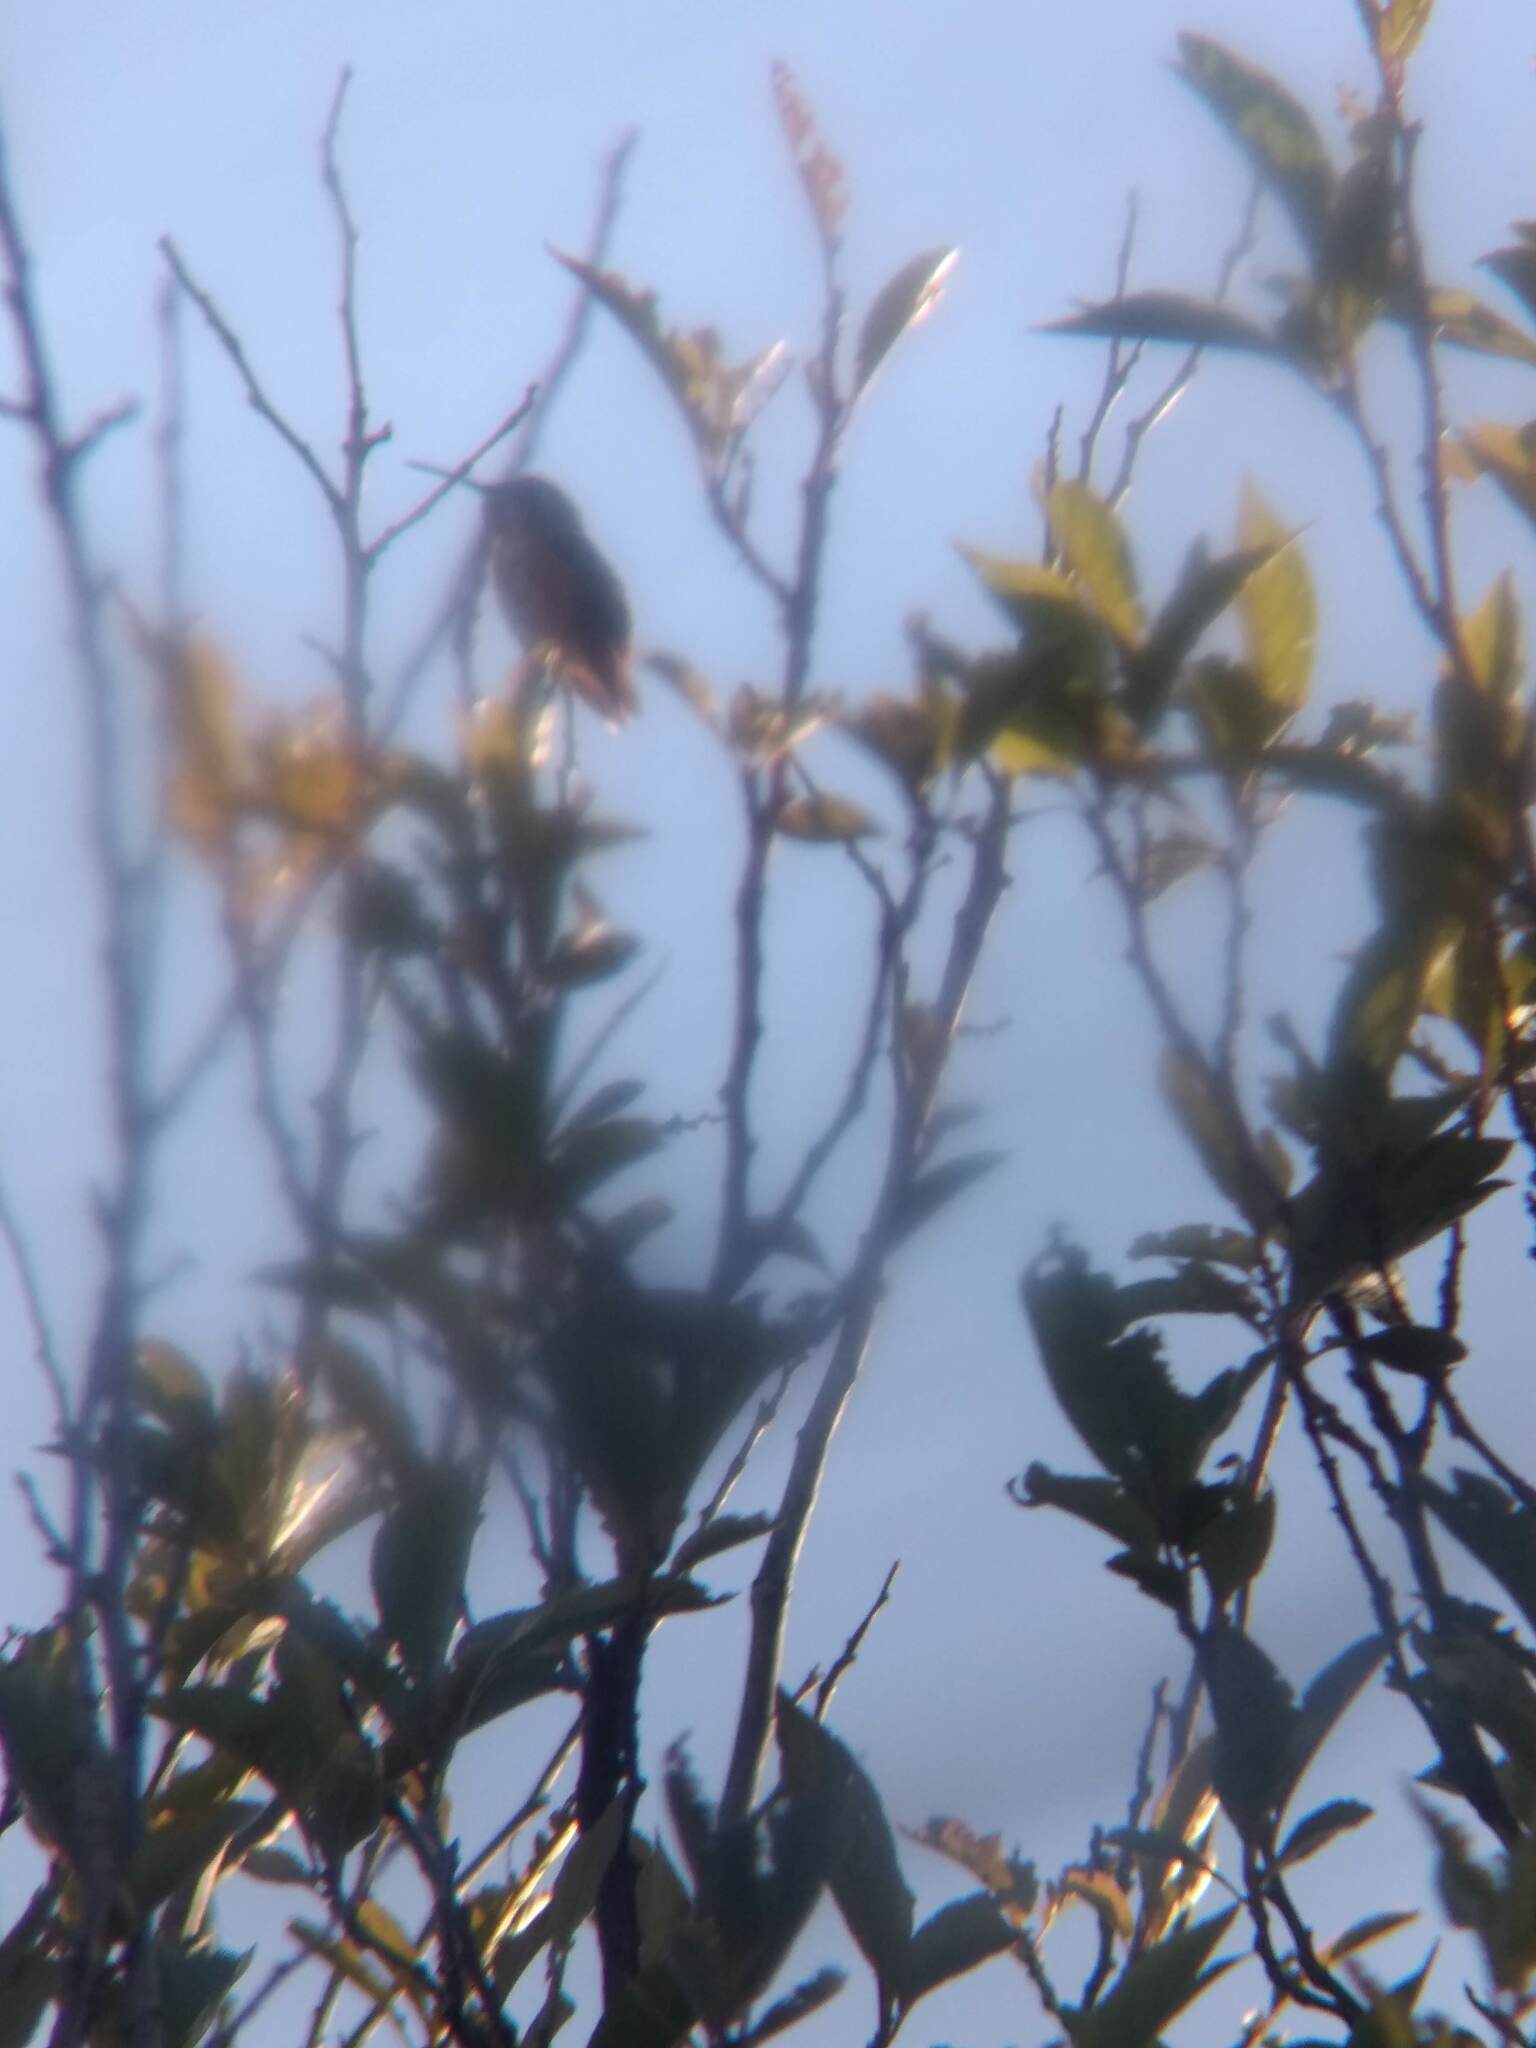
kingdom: Animalia
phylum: Chordata
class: Aves
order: Apodiformes
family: Trochilidae
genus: Selasphorus
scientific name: Selasphorus sasin
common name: Allen's hummingbird
